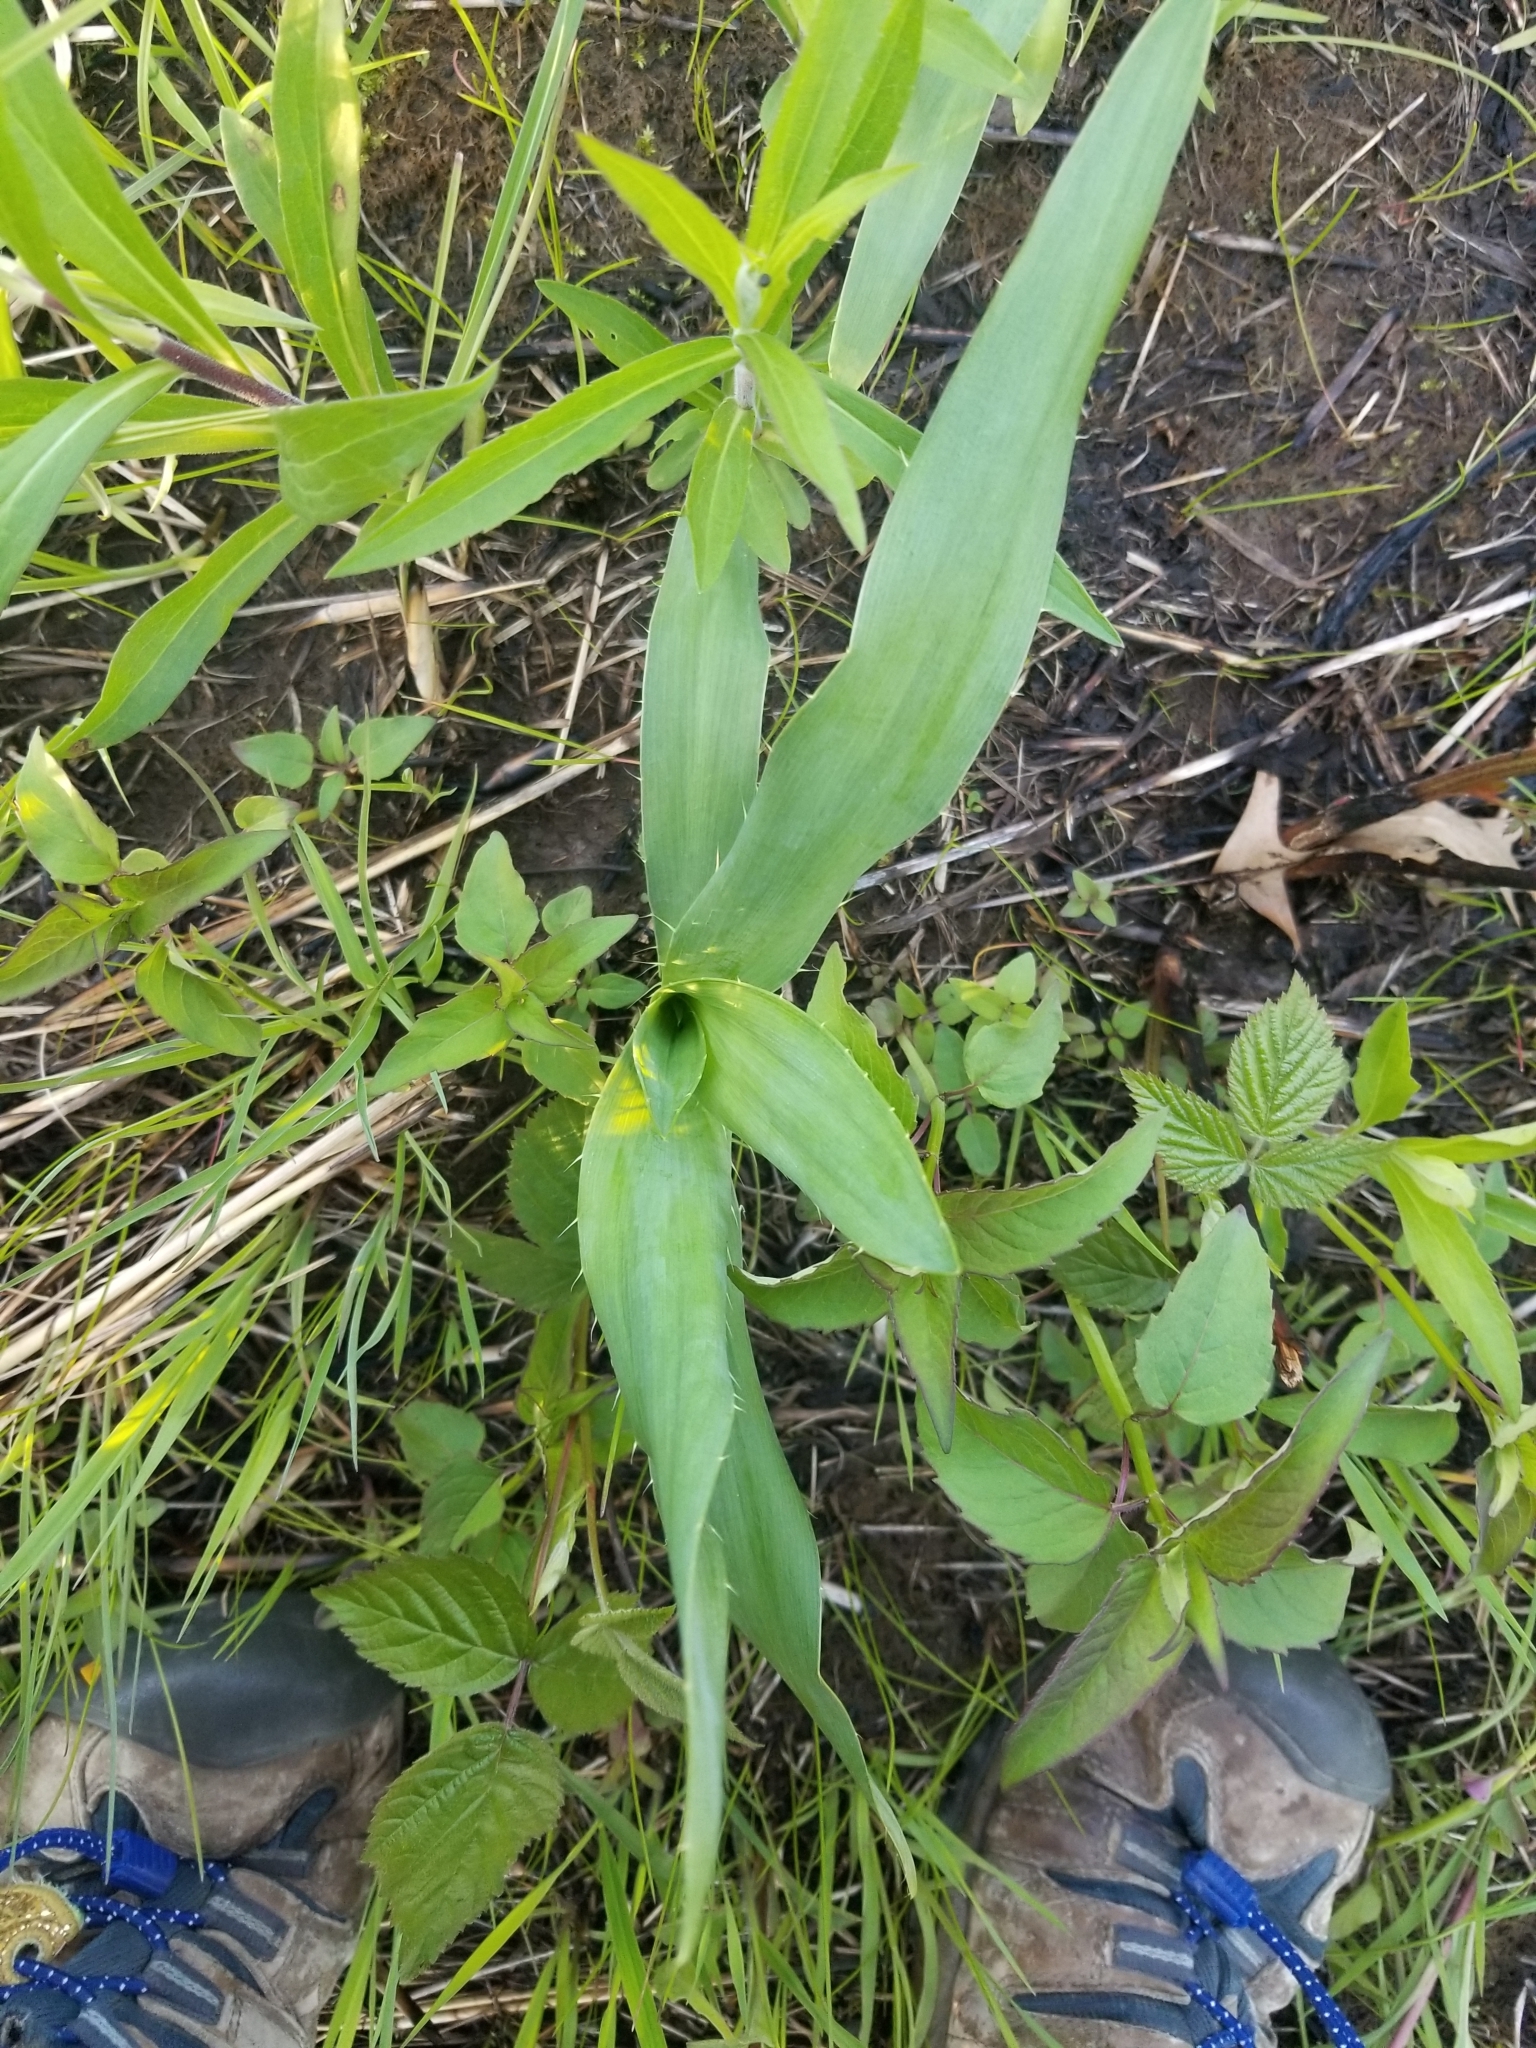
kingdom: Plantae
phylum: Tracheophyta
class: Magnoliopsida
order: Apiales
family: Apiaceae
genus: Eryngium
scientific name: Eryngium yuccifolium
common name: Button eryngo
